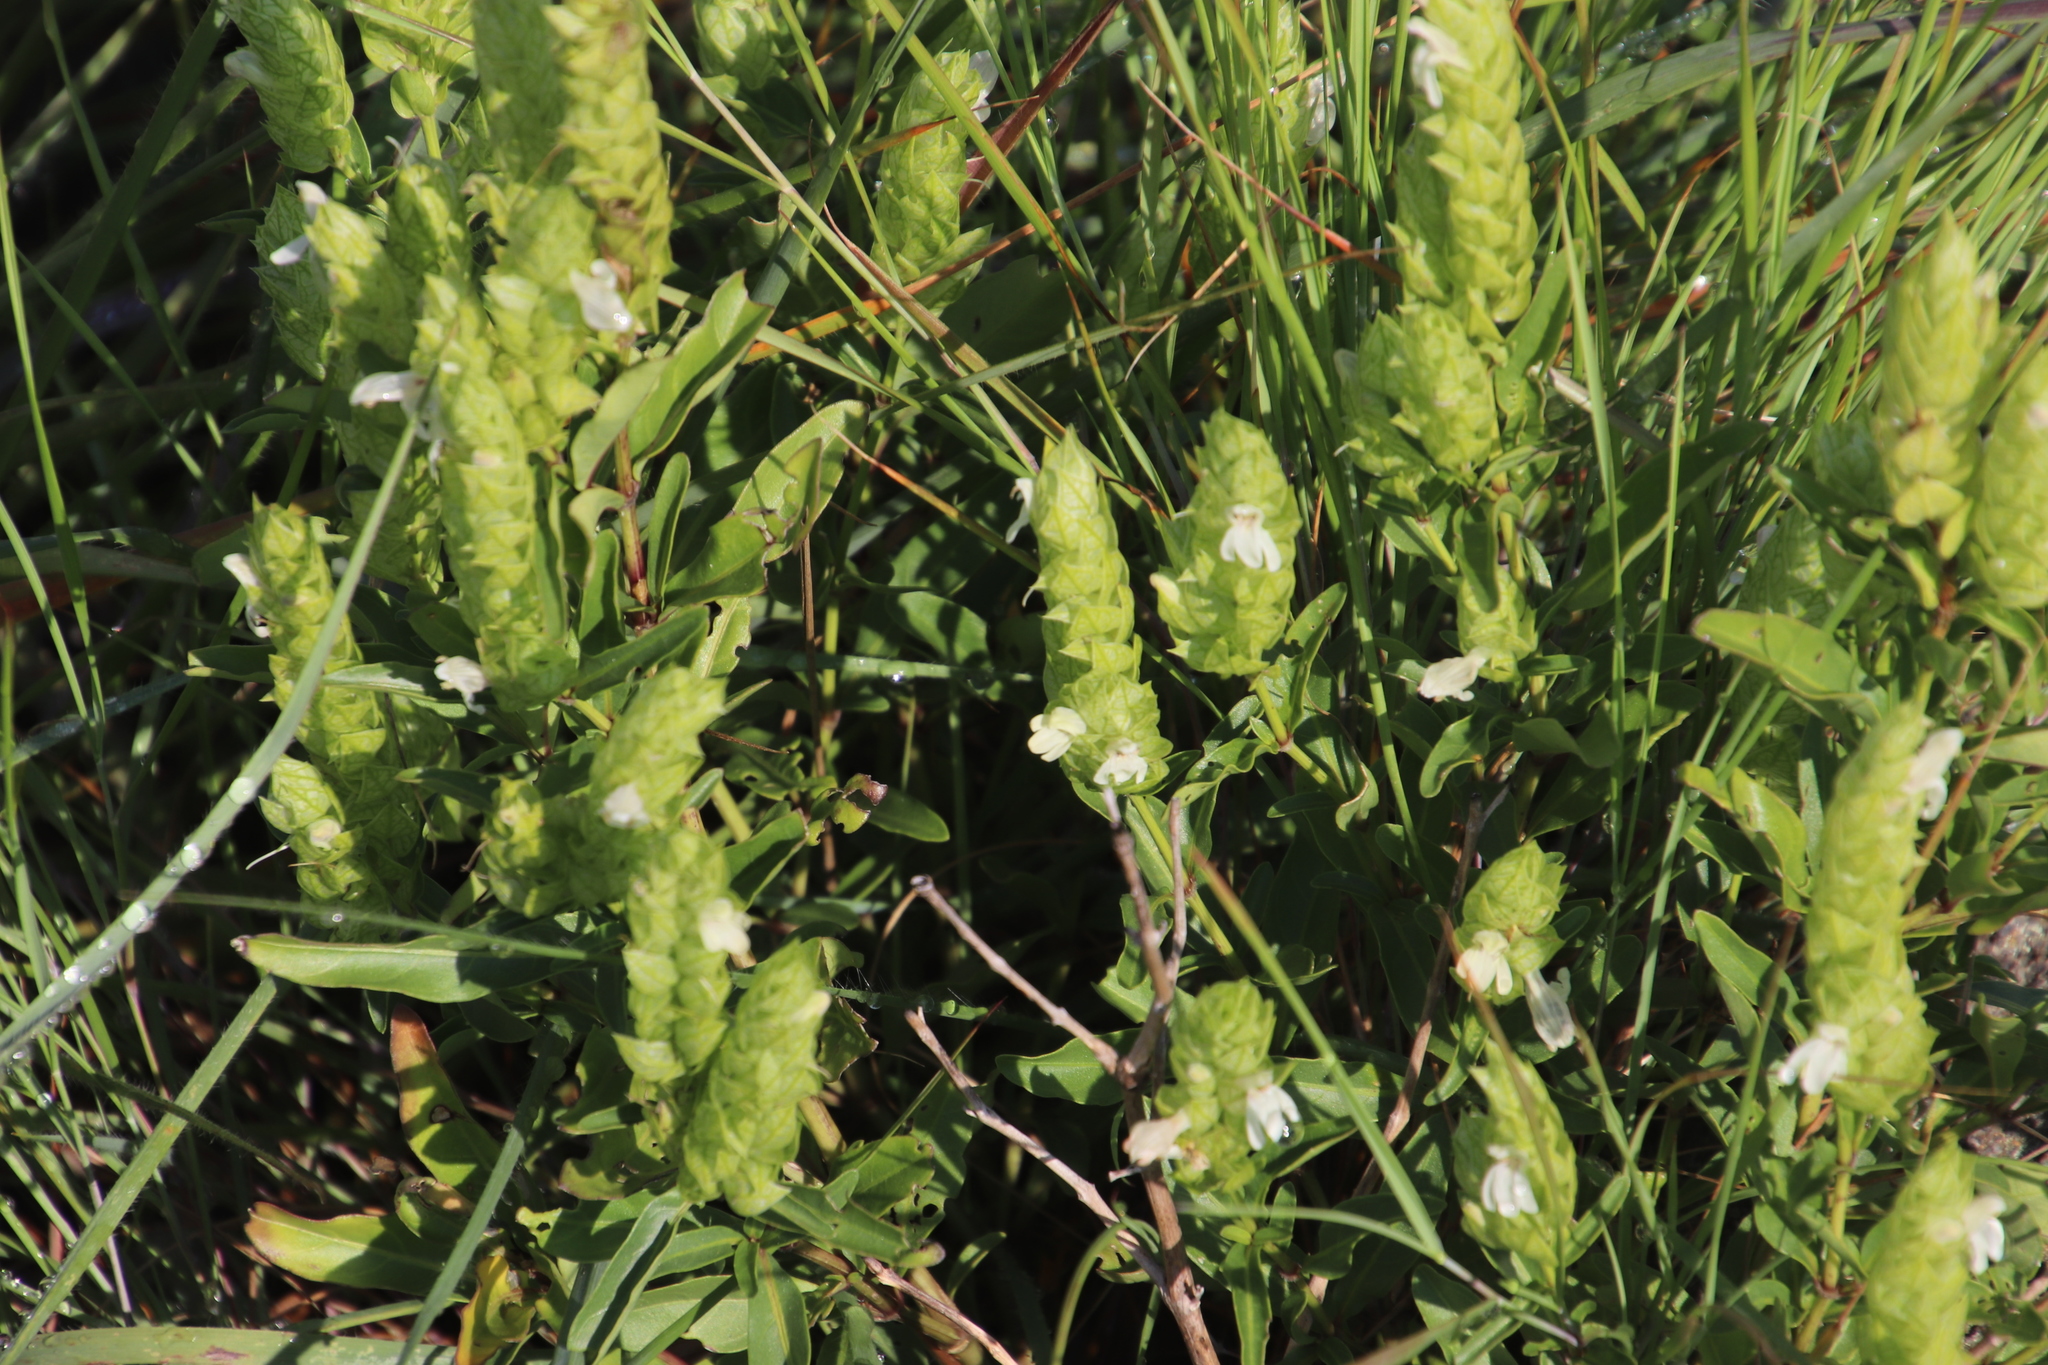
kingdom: Plantae
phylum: Tracheophyta
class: Magnoliopsida
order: Lamiales
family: Acanthaceae
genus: Justicia
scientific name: Justicia betonica
